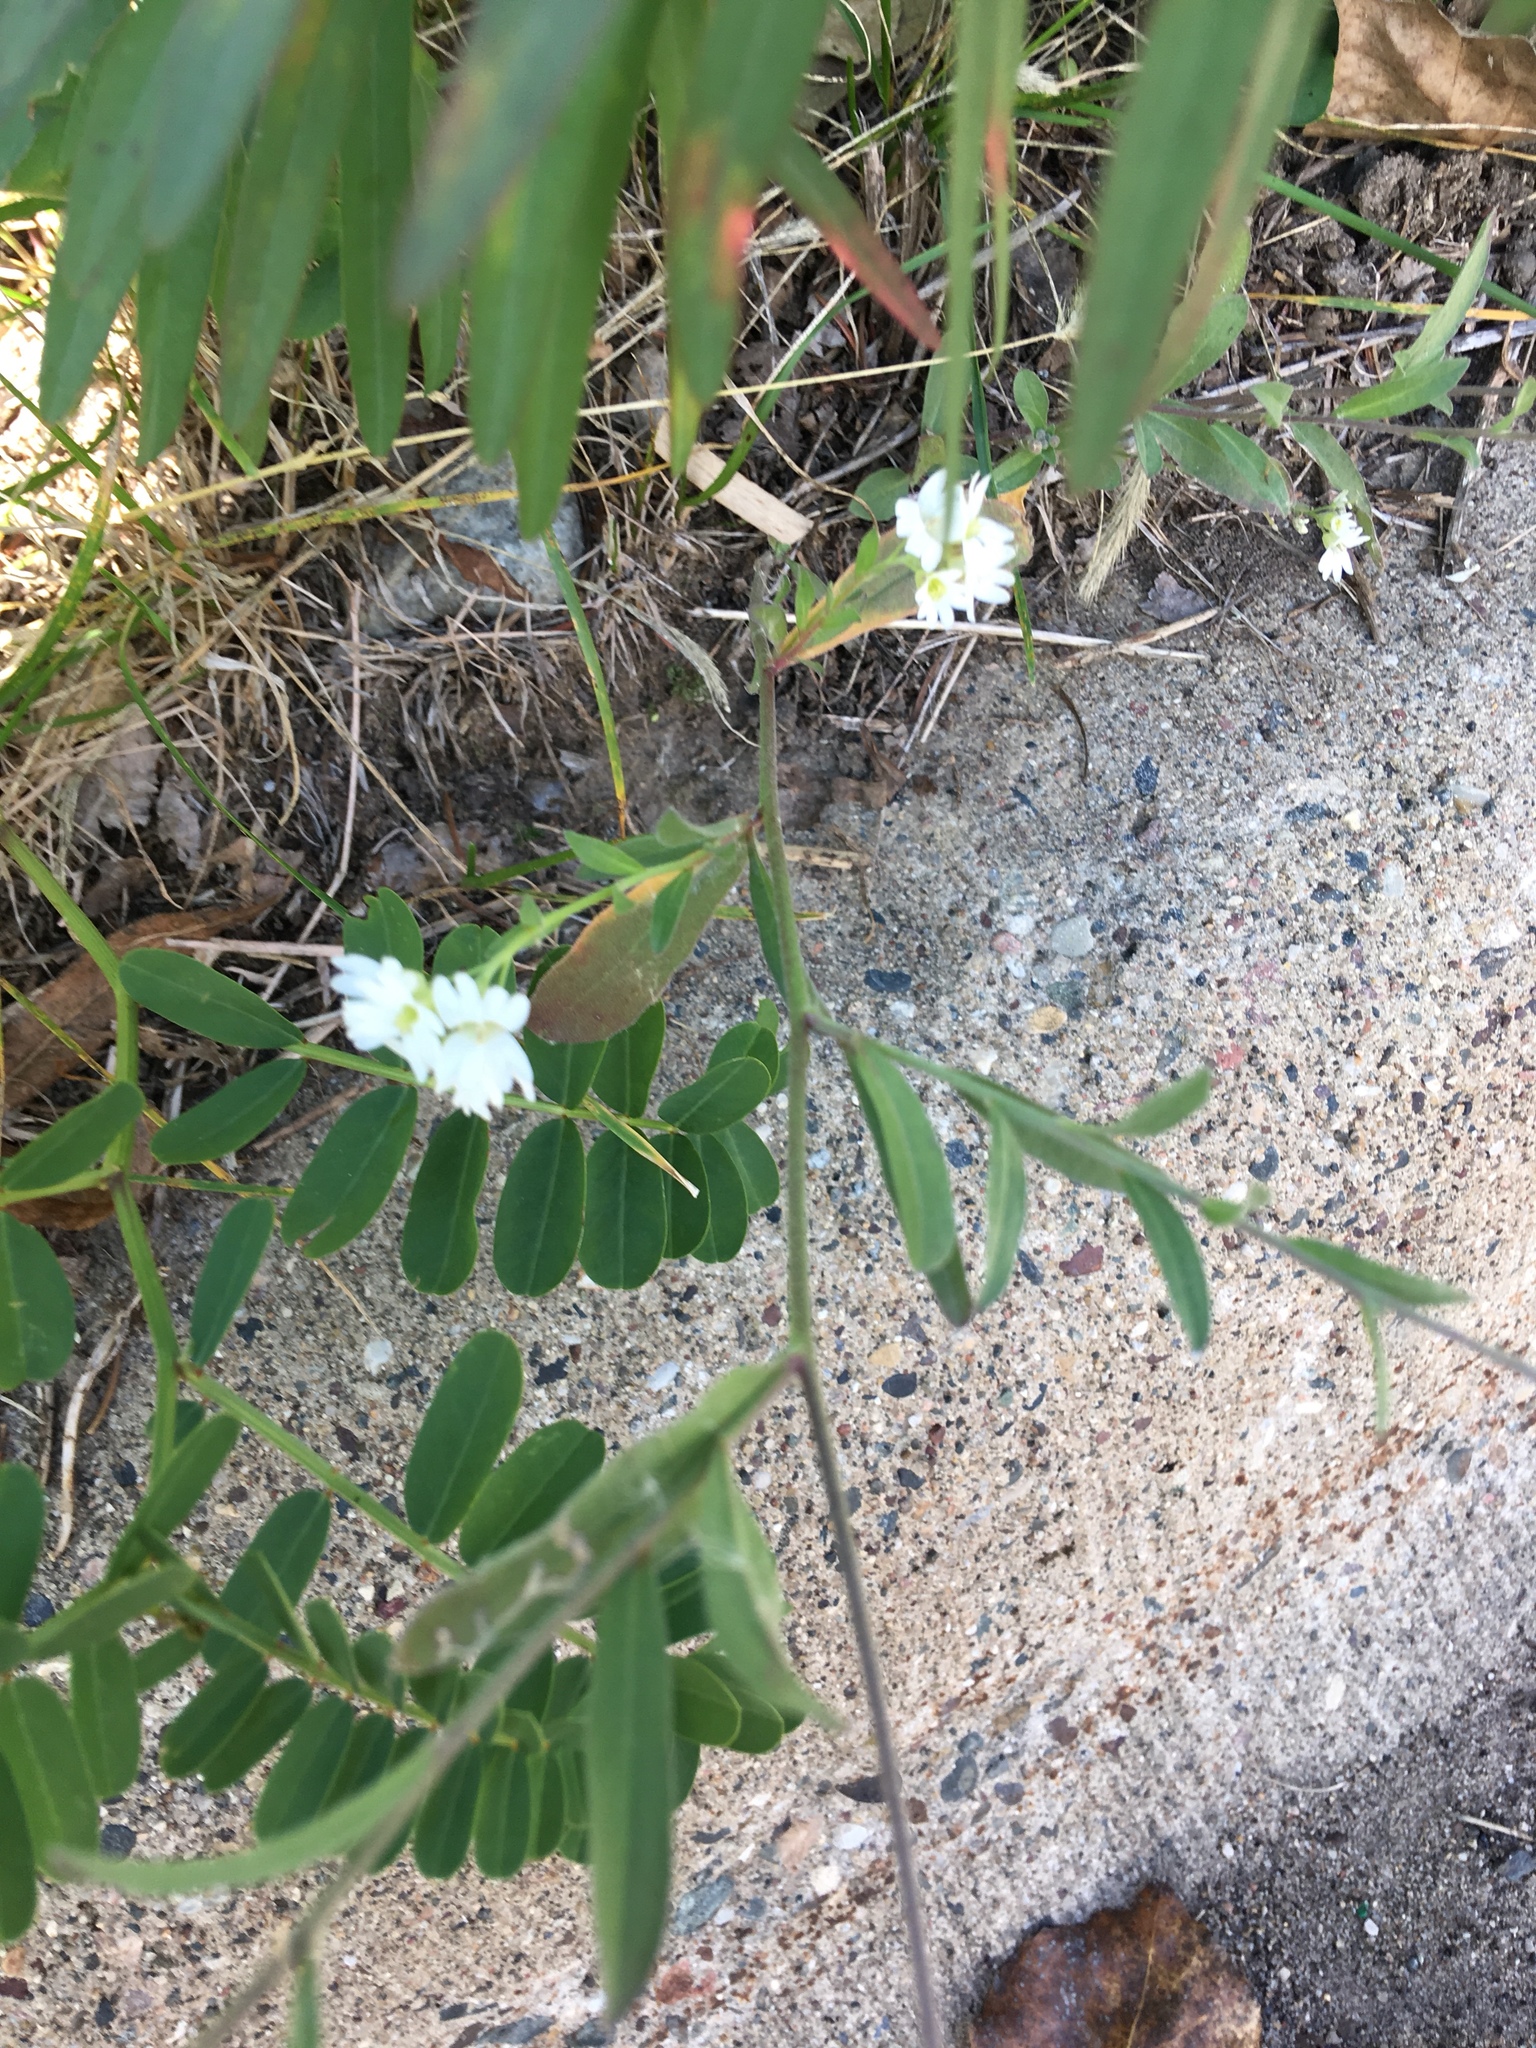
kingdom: Plantae
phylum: Tracheophyta
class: Magnoliopsida
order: Brassicales
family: Brassicaceae
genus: Berteroa
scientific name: Berteroa incana
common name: Hoary alison
